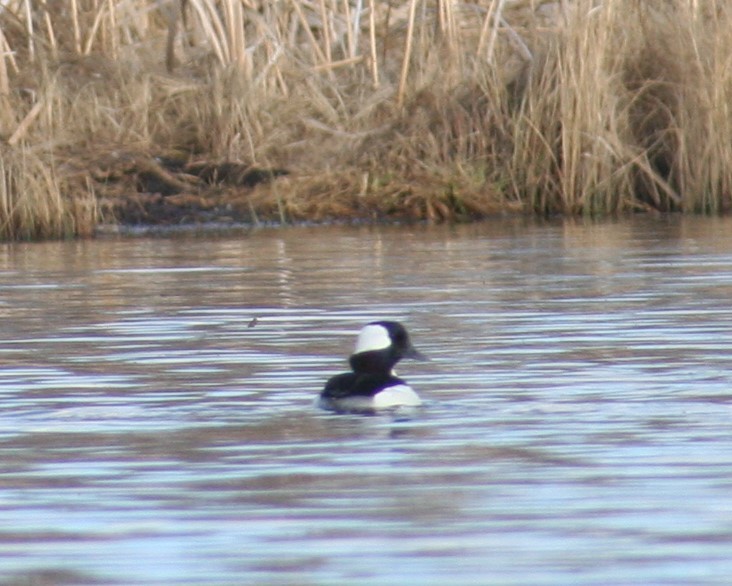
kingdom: Animalia
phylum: Chordata
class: Aves
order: Anseriformes
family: Anatidae
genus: Bucephala
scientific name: Bucephala albeola
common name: Bufflehead
